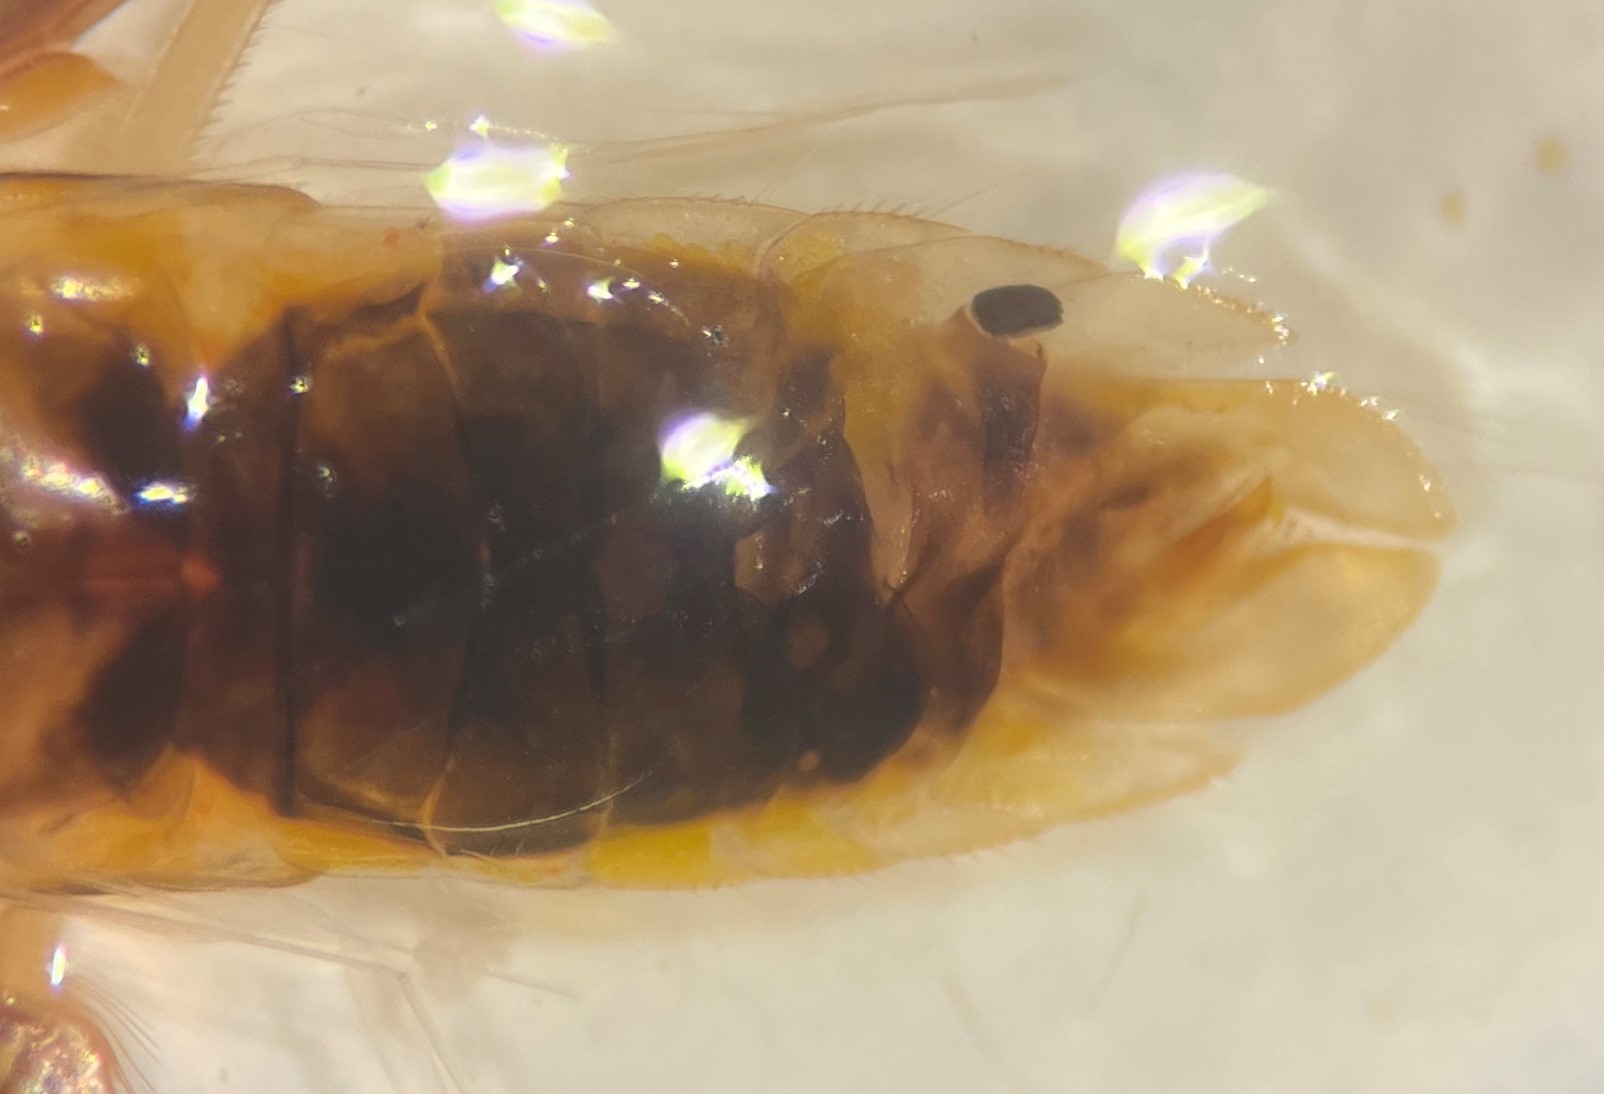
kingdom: Animalia
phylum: Arthropoda
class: Insecta
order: Hemiptera
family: Corixidae
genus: Sigara
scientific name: Sigara mississippiensis
